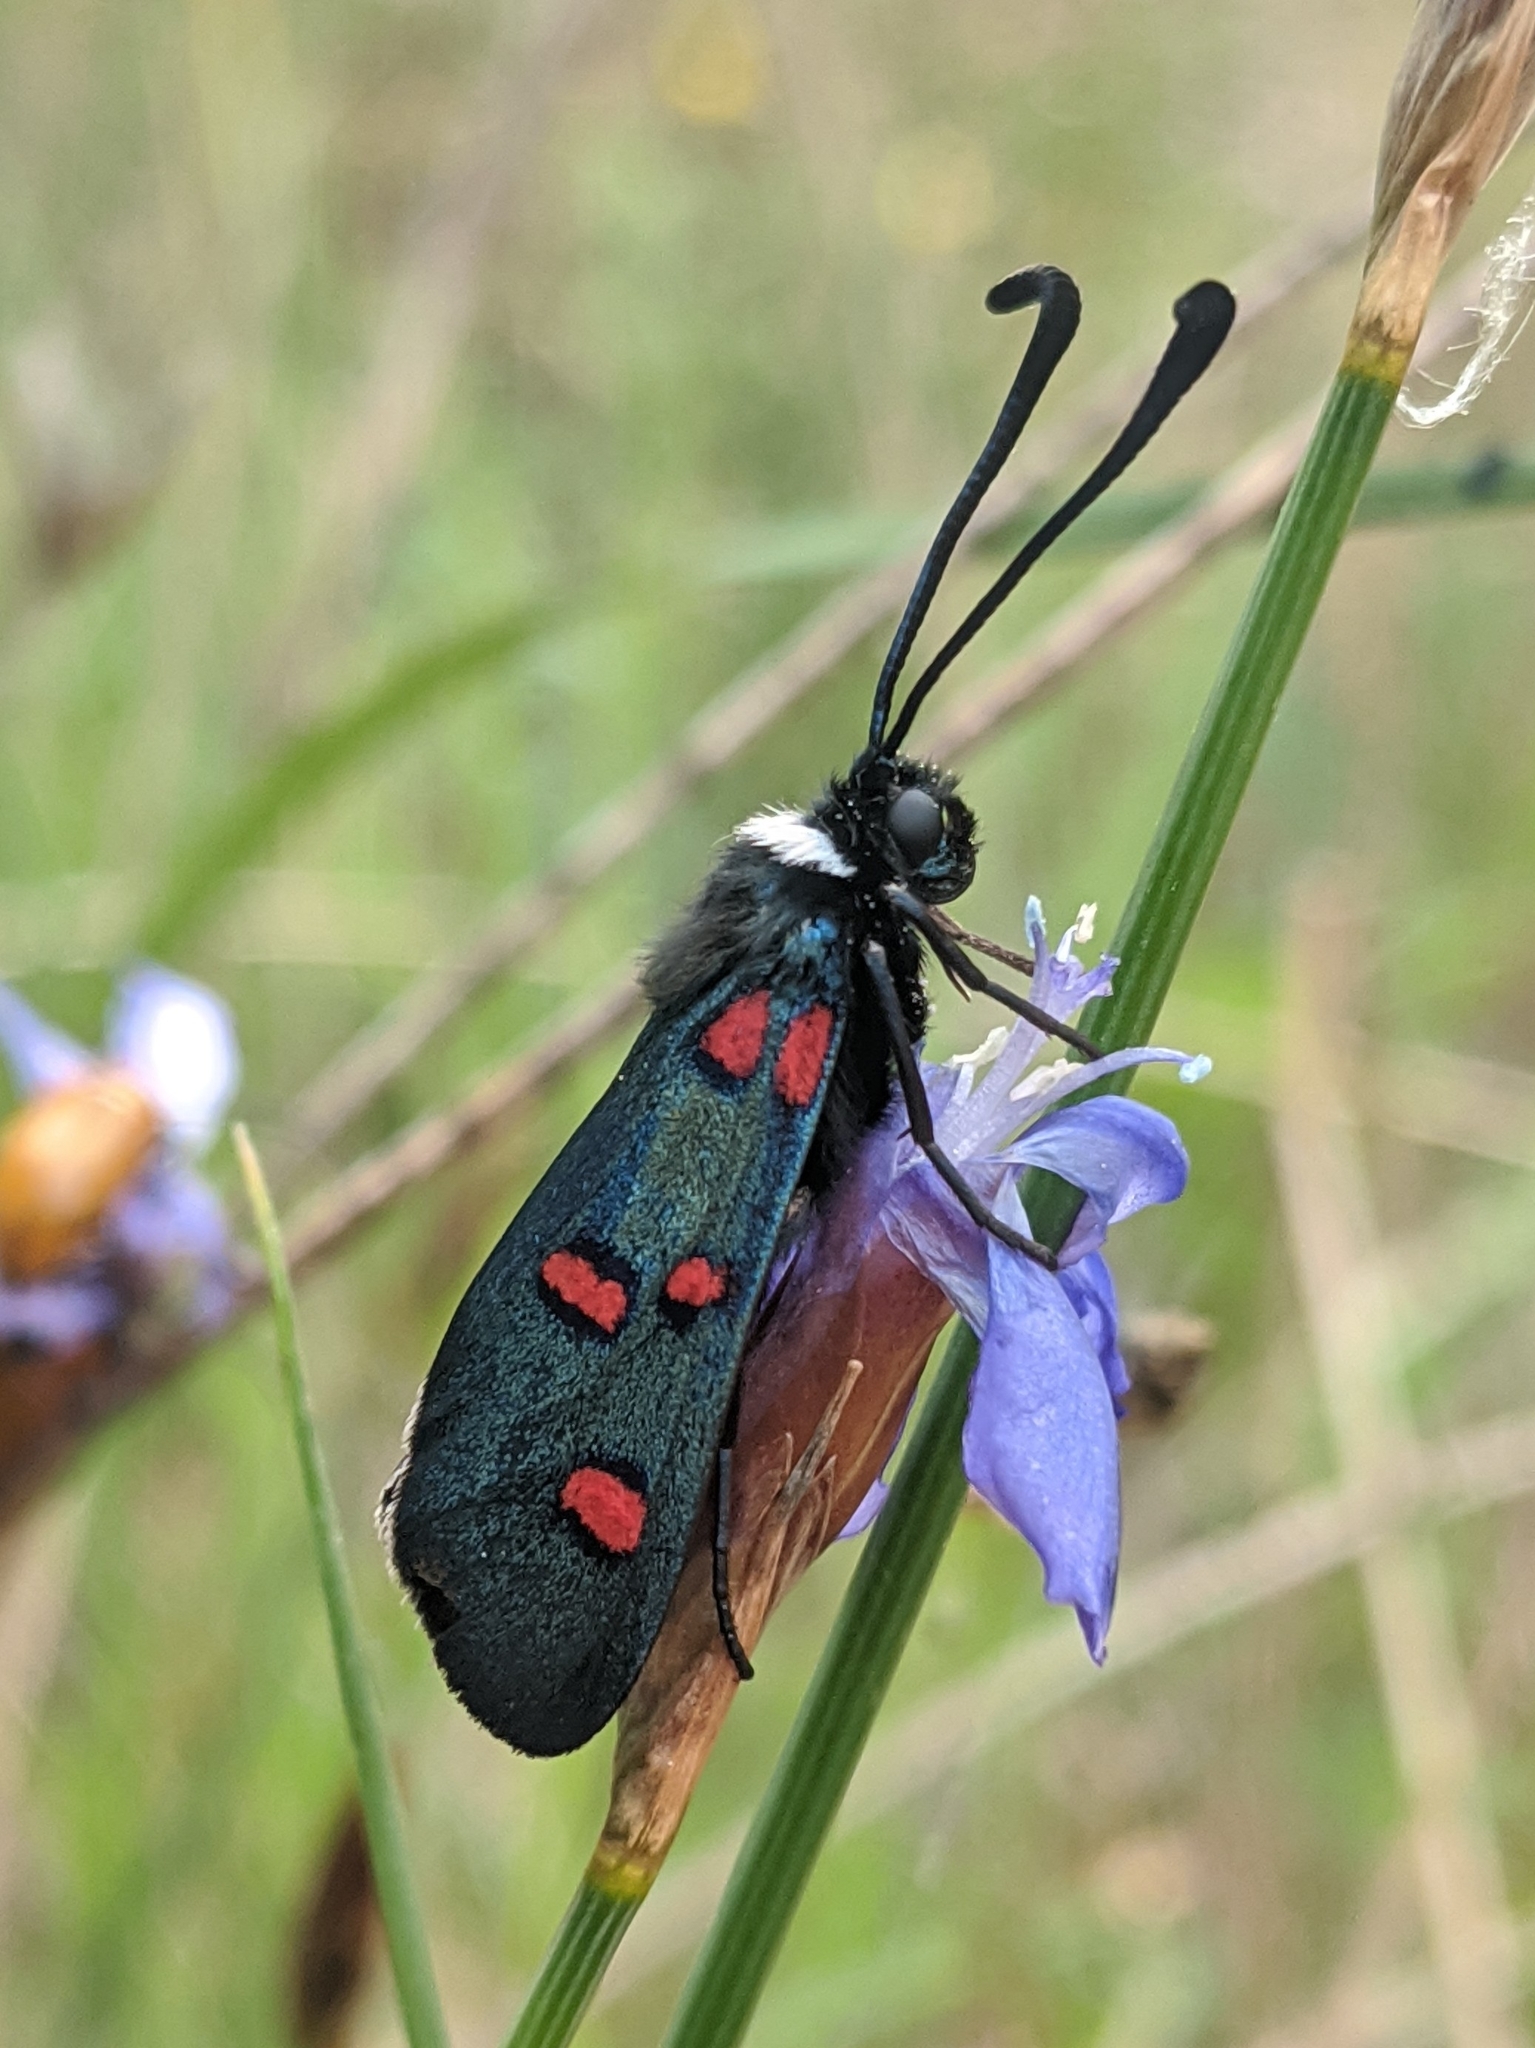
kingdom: Animalia
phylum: Arthropoda
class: Insecta
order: Lepidoptera
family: Zygaenidae
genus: Zygaena
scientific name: Zygaena lavandulae
